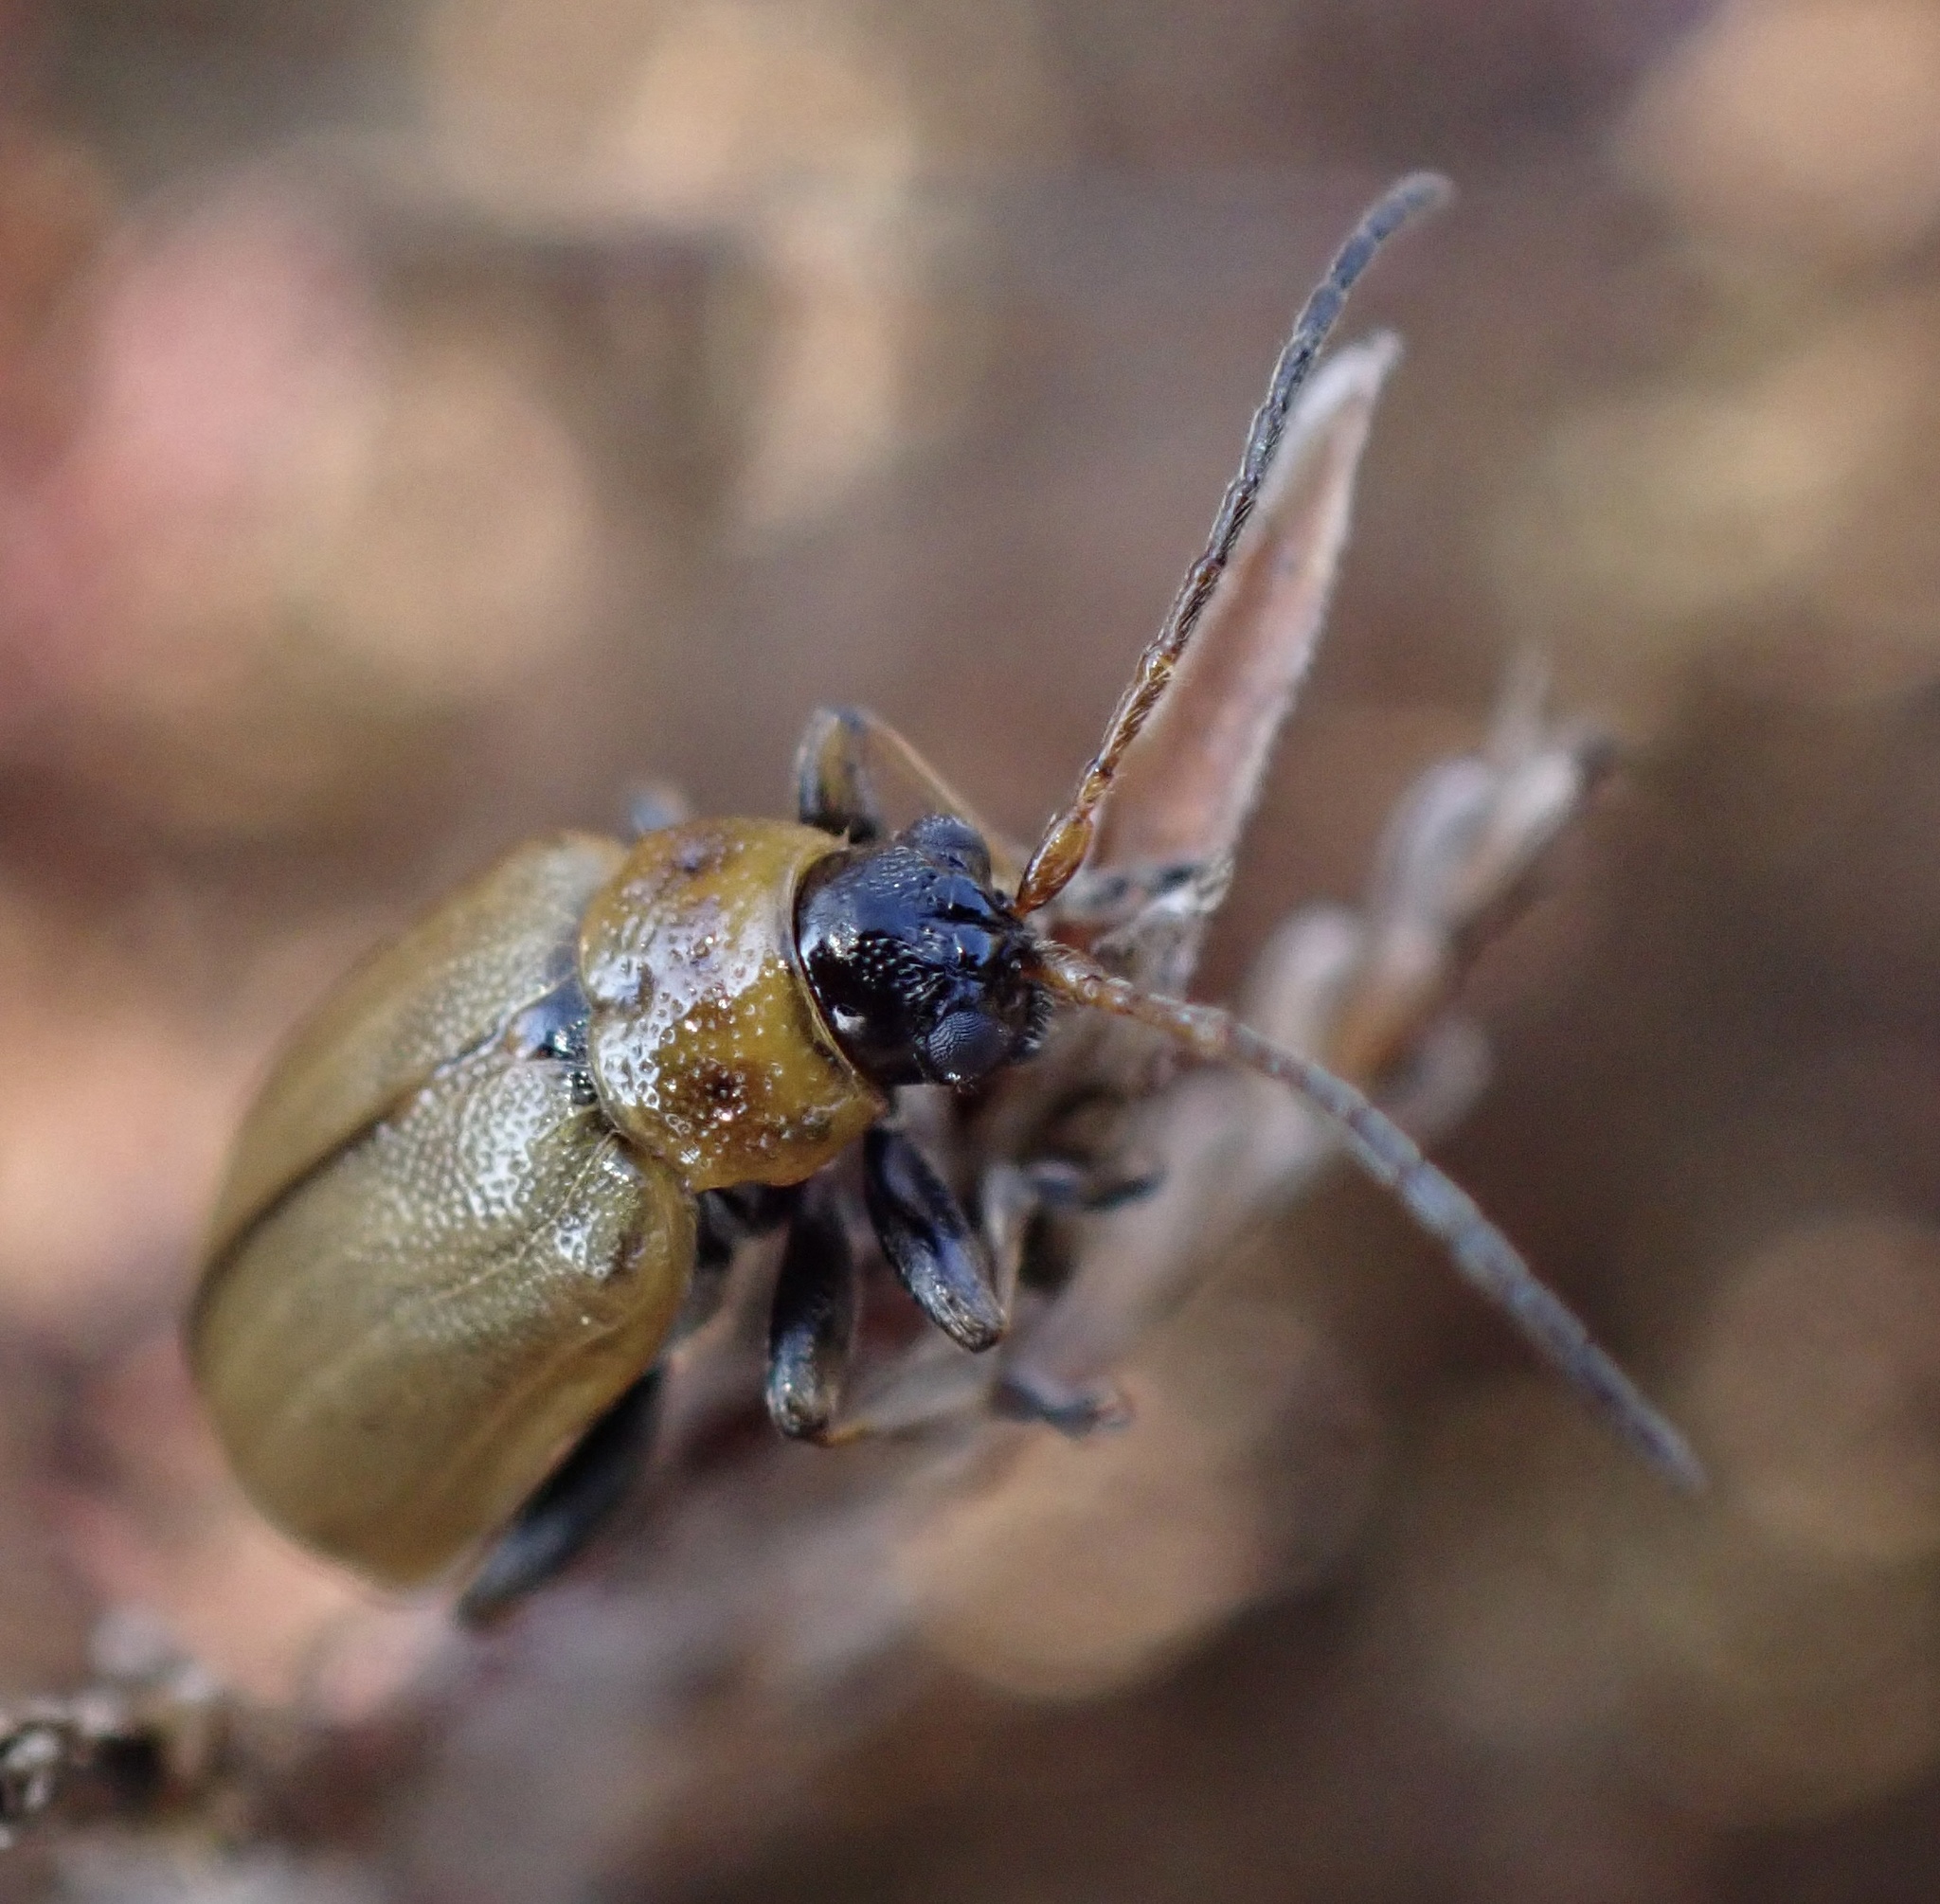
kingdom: Animalia
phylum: Arthropoda
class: Insecta
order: Coleoptera
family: Chrysomelidae
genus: Lochmaea
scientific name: Lochmaea suturalis
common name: Heather beetle
